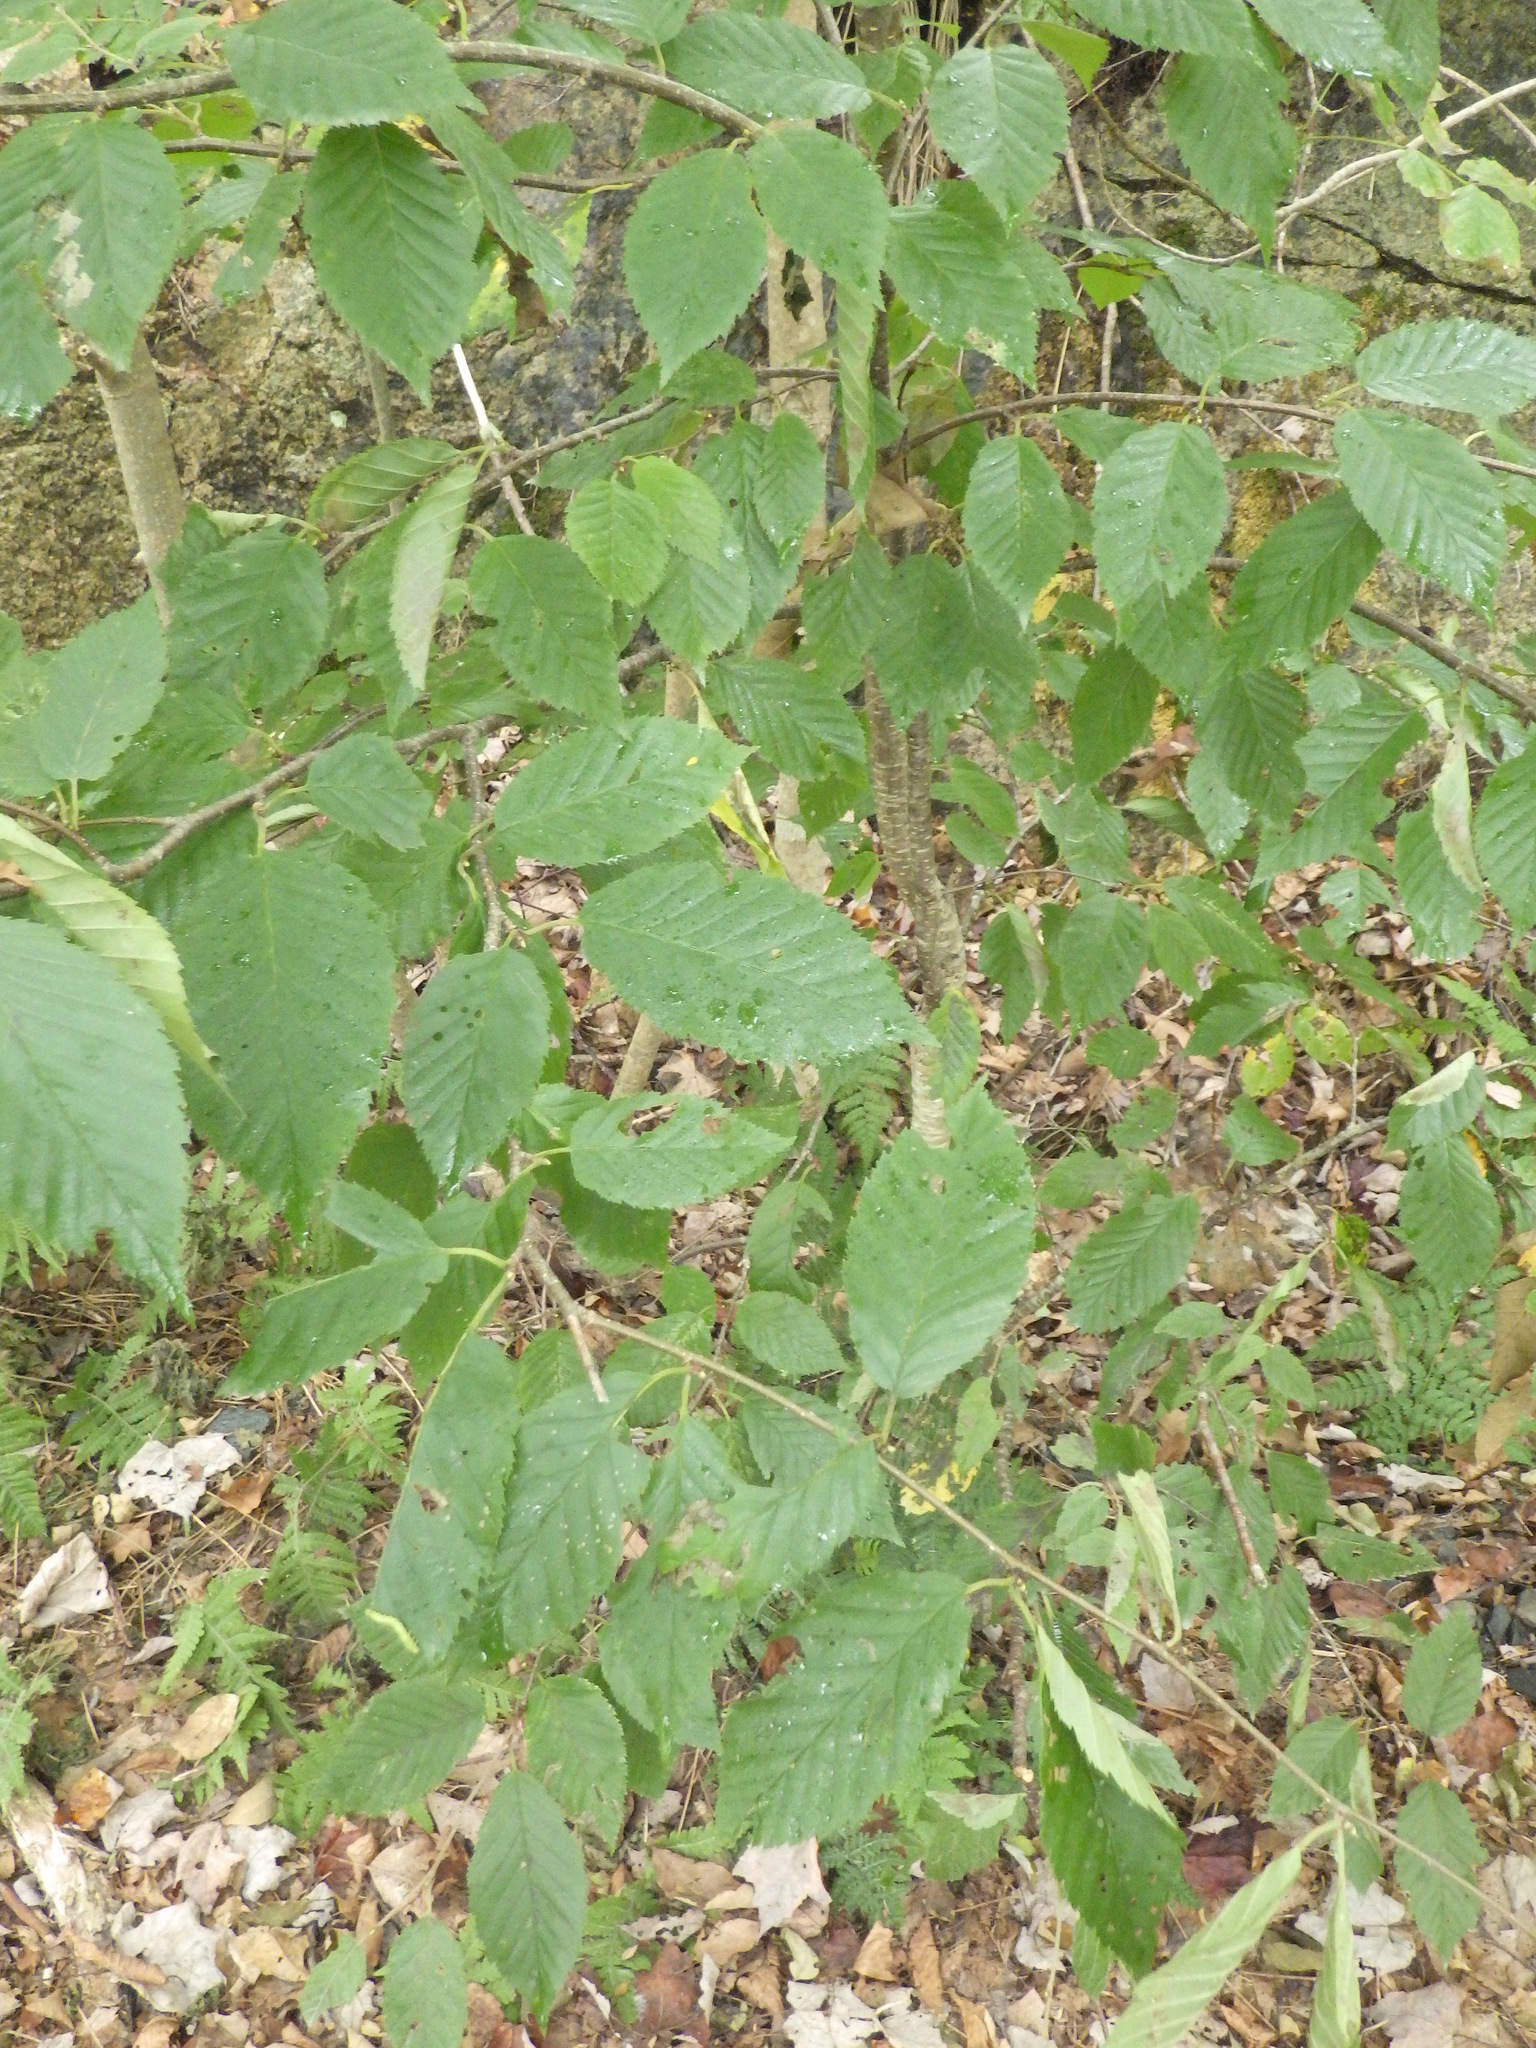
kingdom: Plantae
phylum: Tracheophyta
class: Magnoliopsida
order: Fagales
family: Betulaceae
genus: Betula
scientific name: Betula alleghaniensis
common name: Yellow birch
